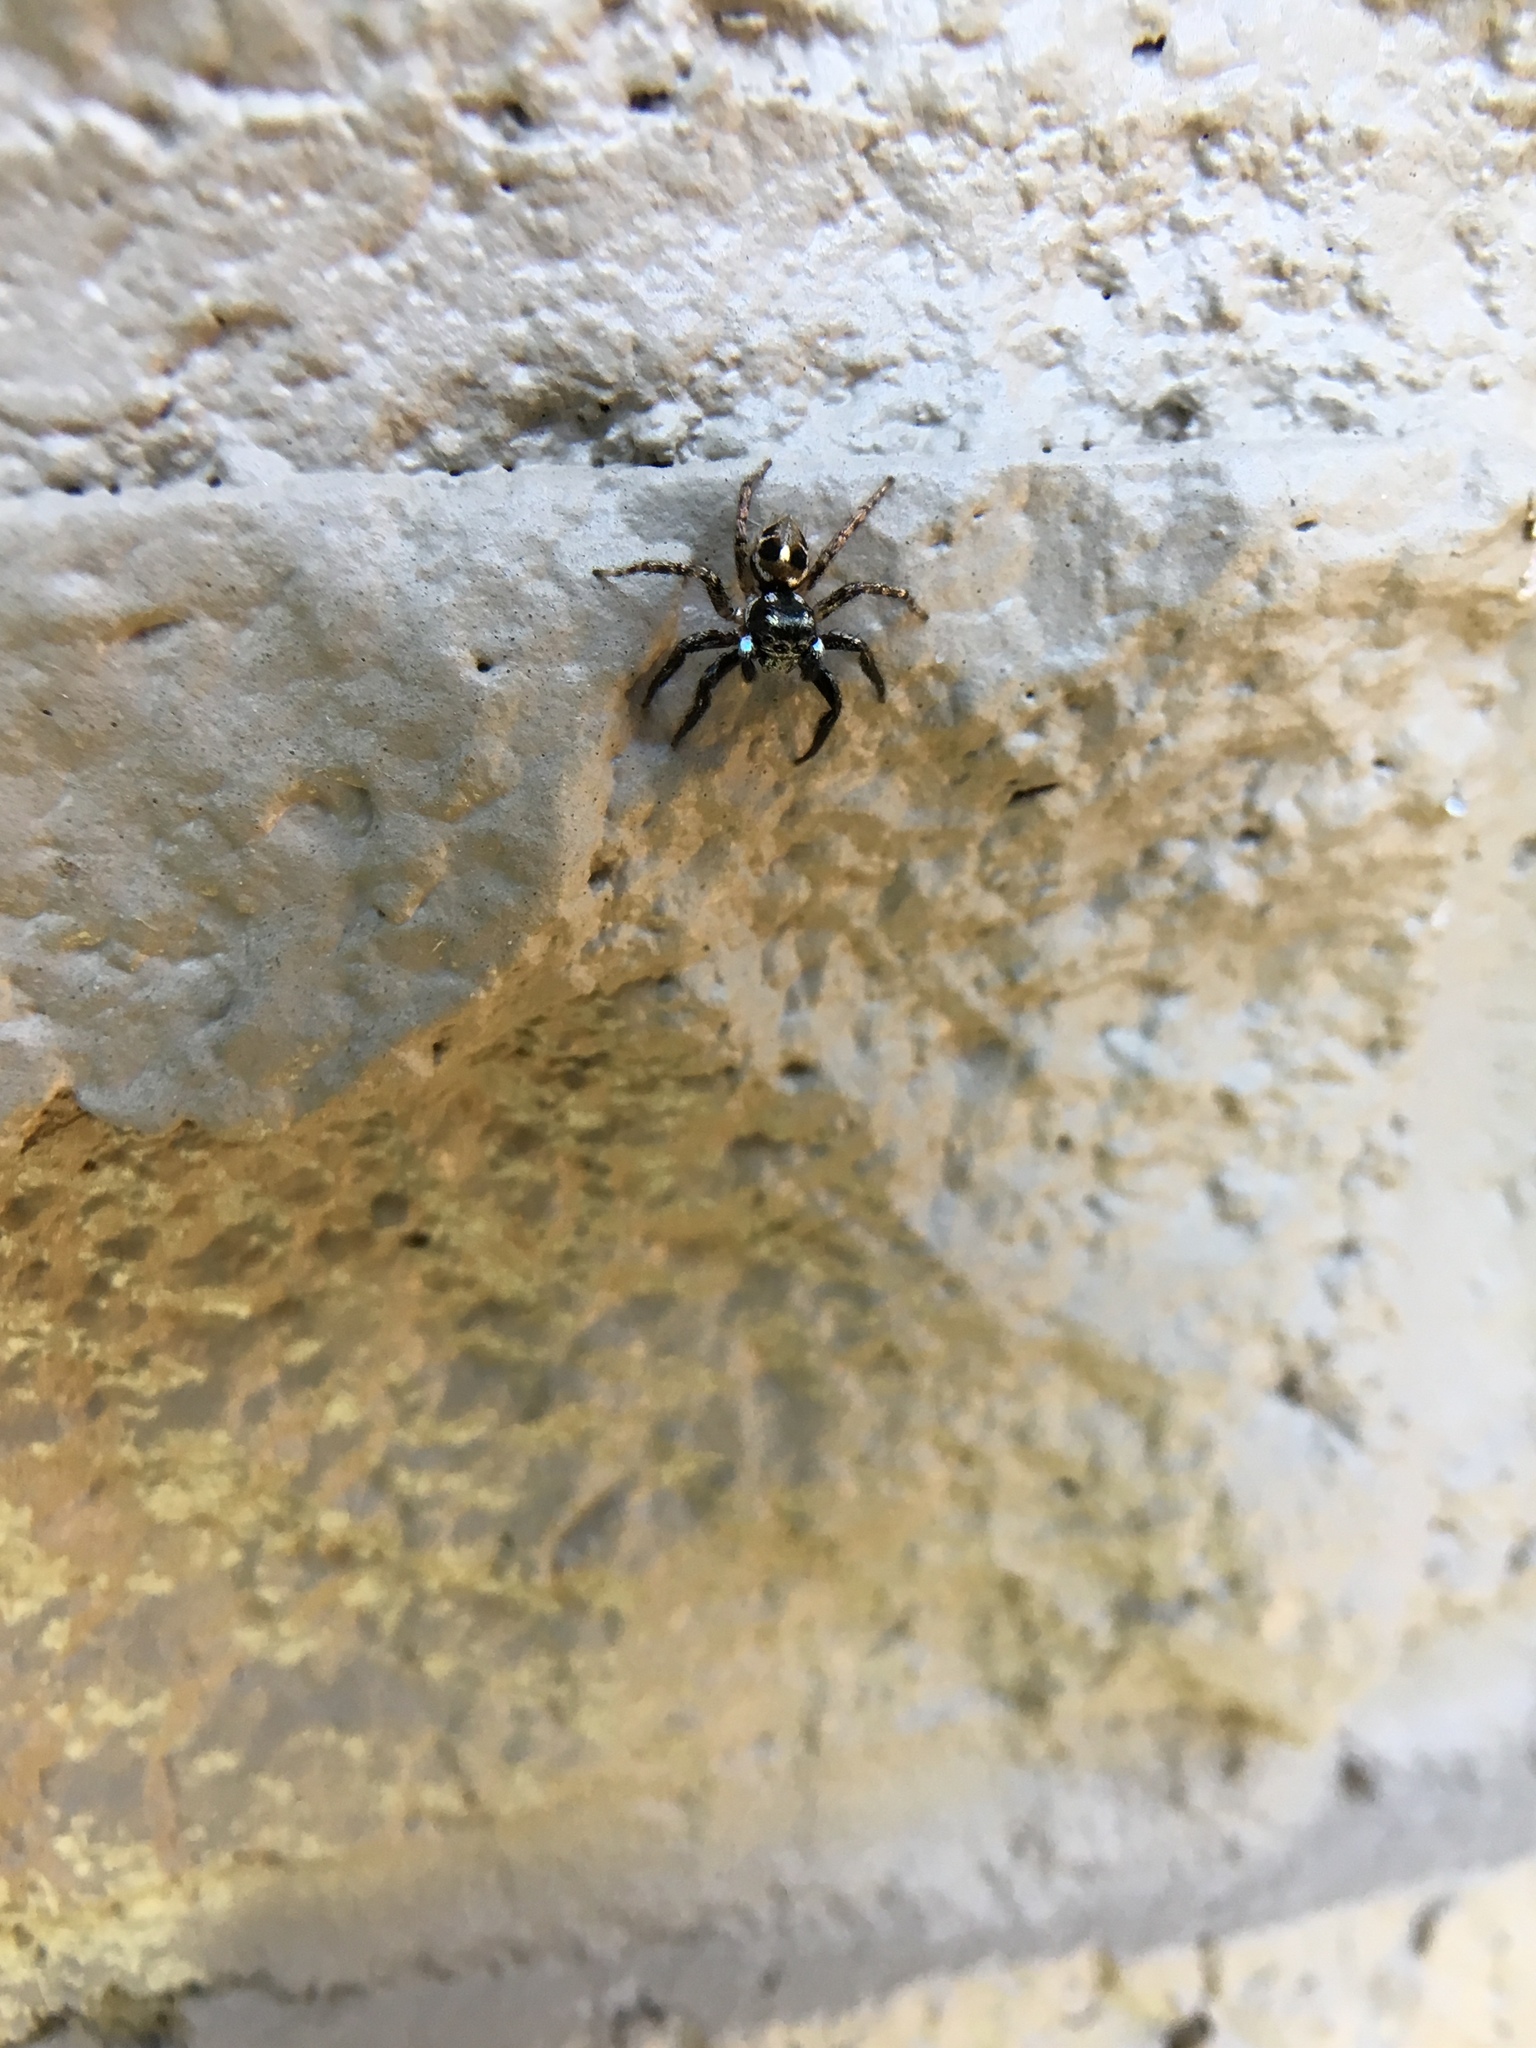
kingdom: Animalia
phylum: Arthropoda
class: Arachnida
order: Araneae
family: Salticidae
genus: Anasaitis
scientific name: Anasaitis canosa
